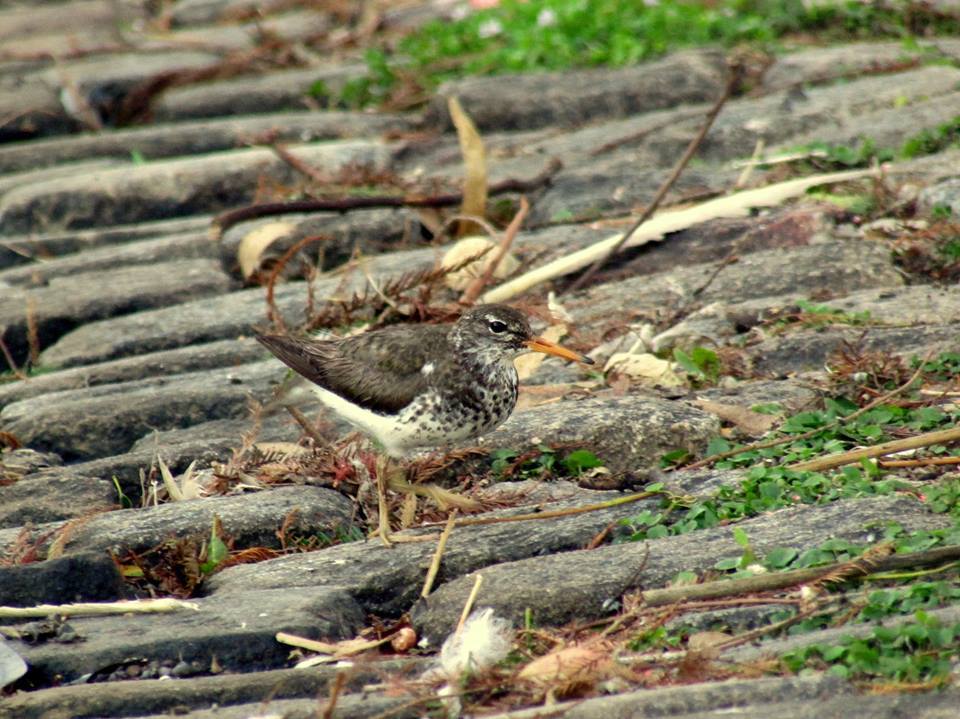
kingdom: Animalia
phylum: Chordata
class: Aves
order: Charadriiformes
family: Scolopacidae
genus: Actitis
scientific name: Actitis macularius
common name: Spotted sandpiper
